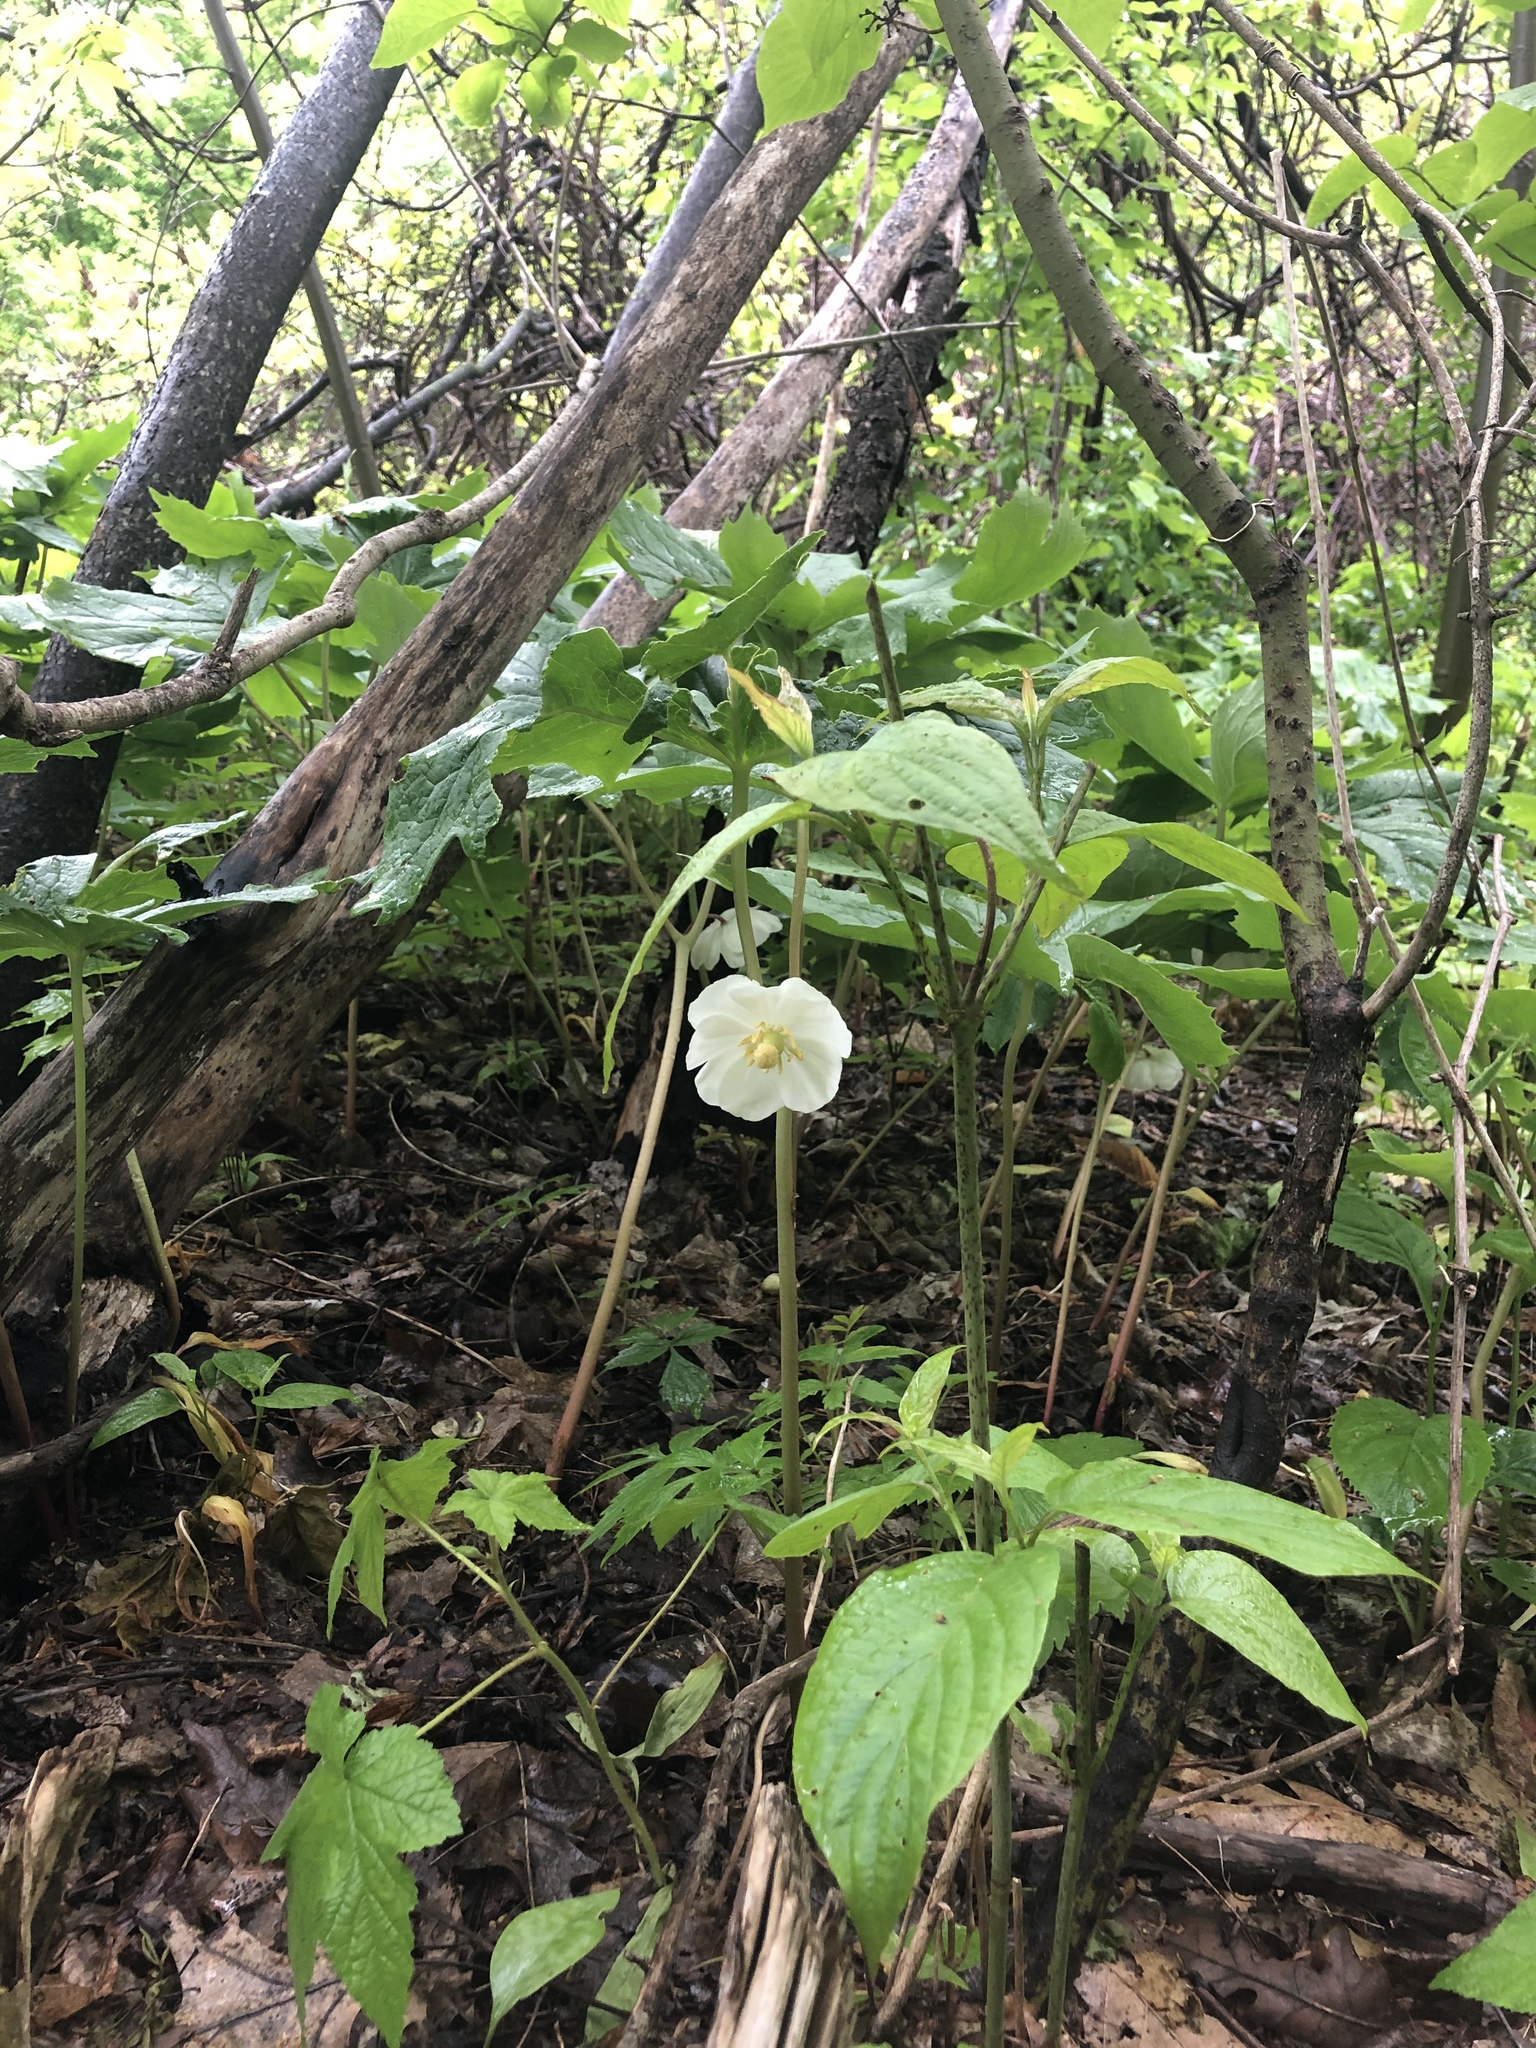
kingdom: Plantae
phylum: Tracheophyta
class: Magnoliopsida
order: Ranunculales
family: Berberidaceae
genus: Podophyllum
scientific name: Podophyllum peltatum
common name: Wild mandrake
